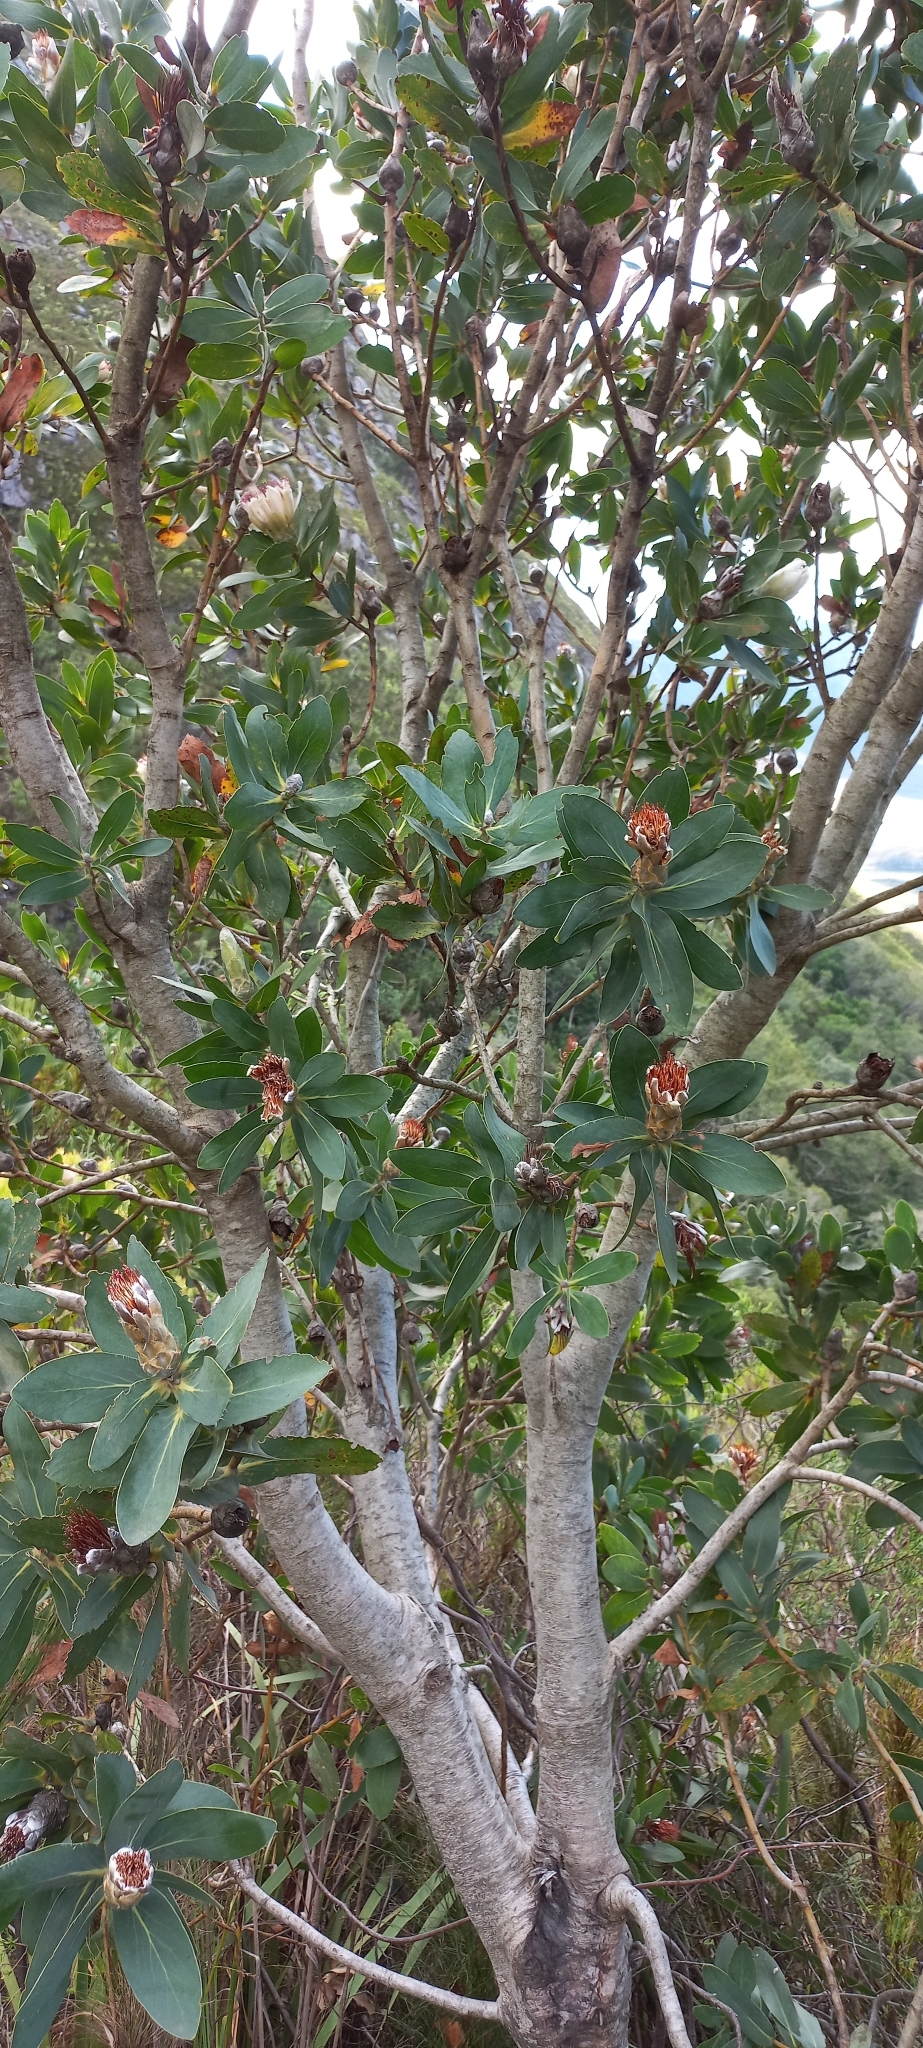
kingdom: Plantae
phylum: Tracheophyta
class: Magnoliopsida
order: Proteales
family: Proteaceae
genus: Protea
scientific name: Protea mundii
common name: Forest sugarbush
